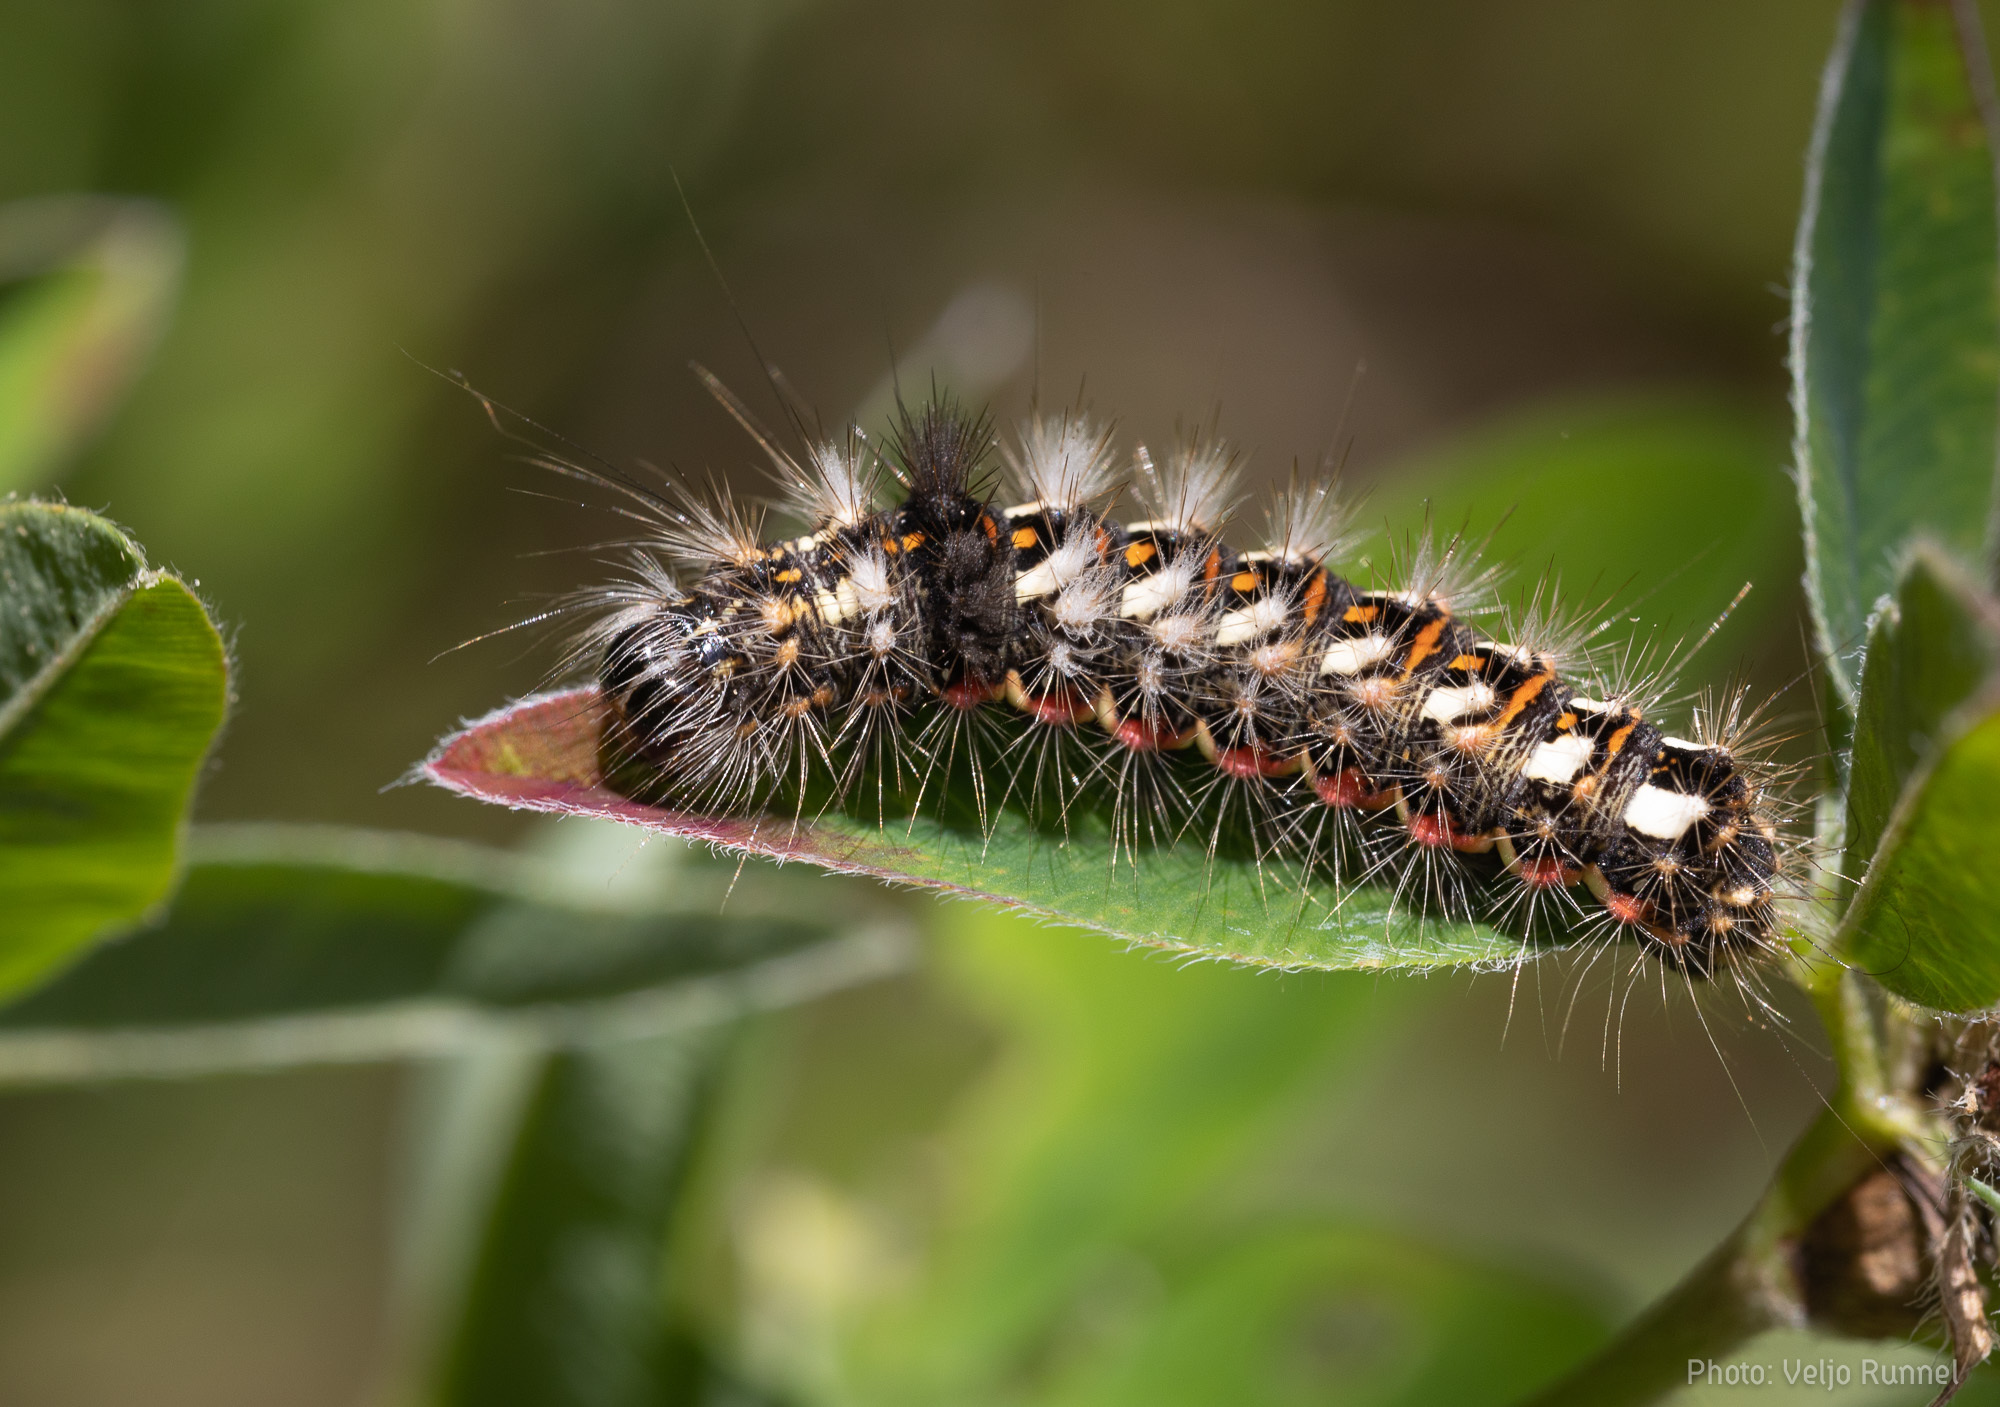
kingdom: Animalia
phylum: Arthropoda
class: Insecta
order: Lepidoptera
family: Noctuidae
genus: Acronicta
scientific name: Acronicta rumicis
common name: Knot grass
